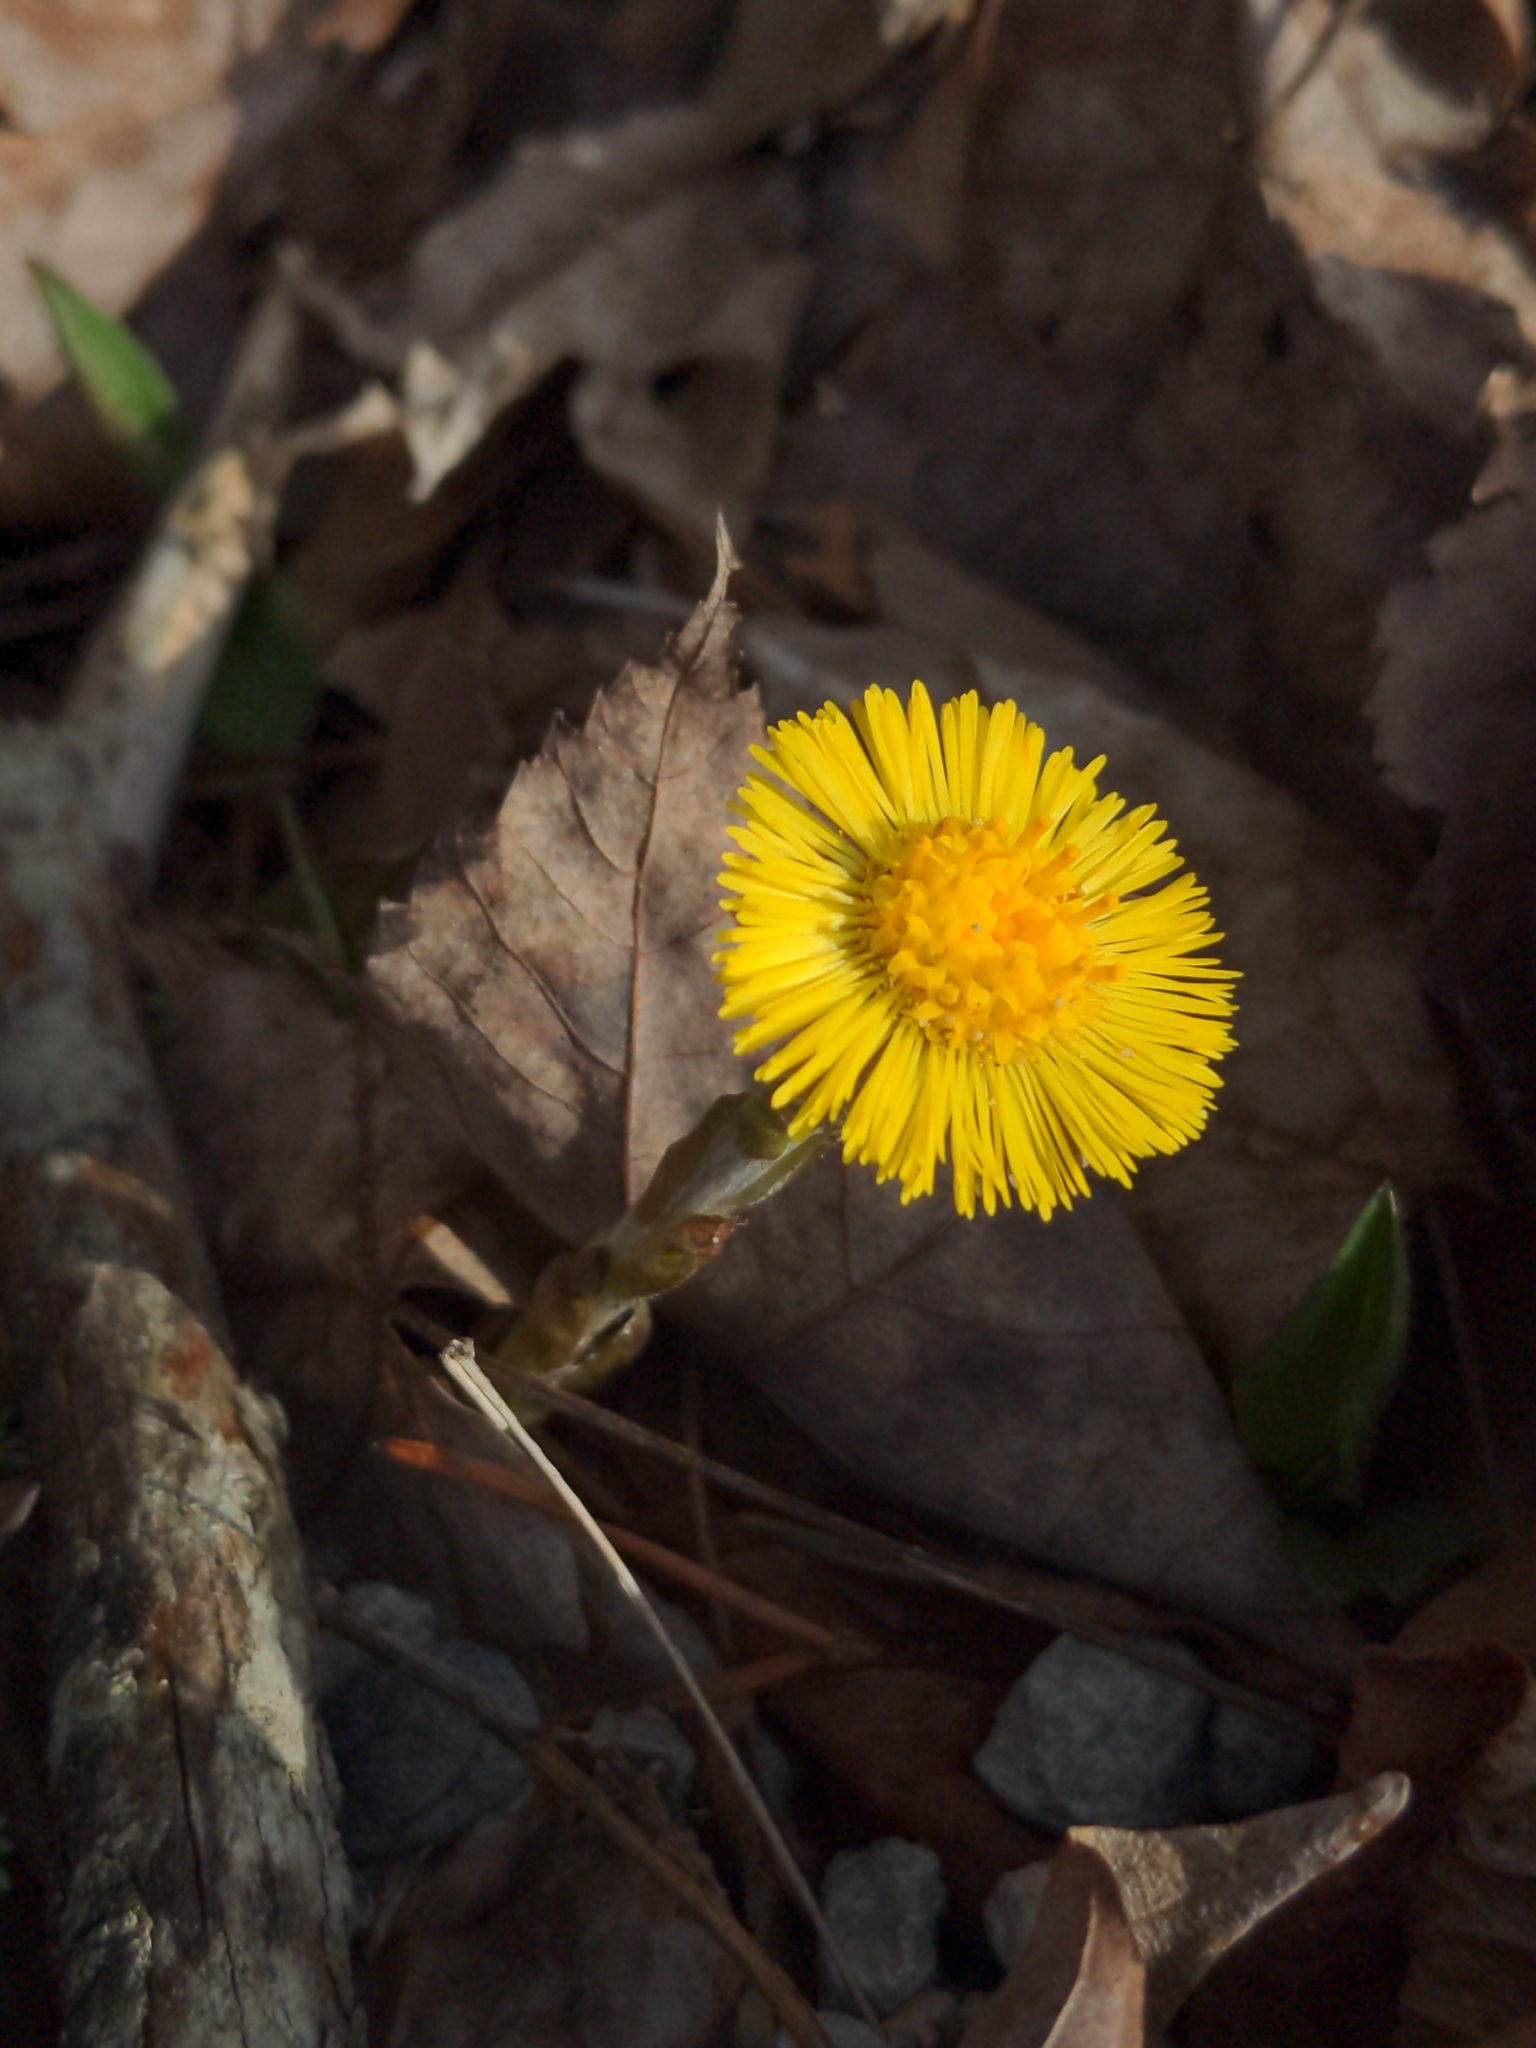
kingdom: Plantae
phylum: Tracheophyta
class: Magnoliopsida
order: Asterales
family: Asteraceae
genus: Tussilago
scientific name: Tussilago farfara
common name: Coltsfoot
